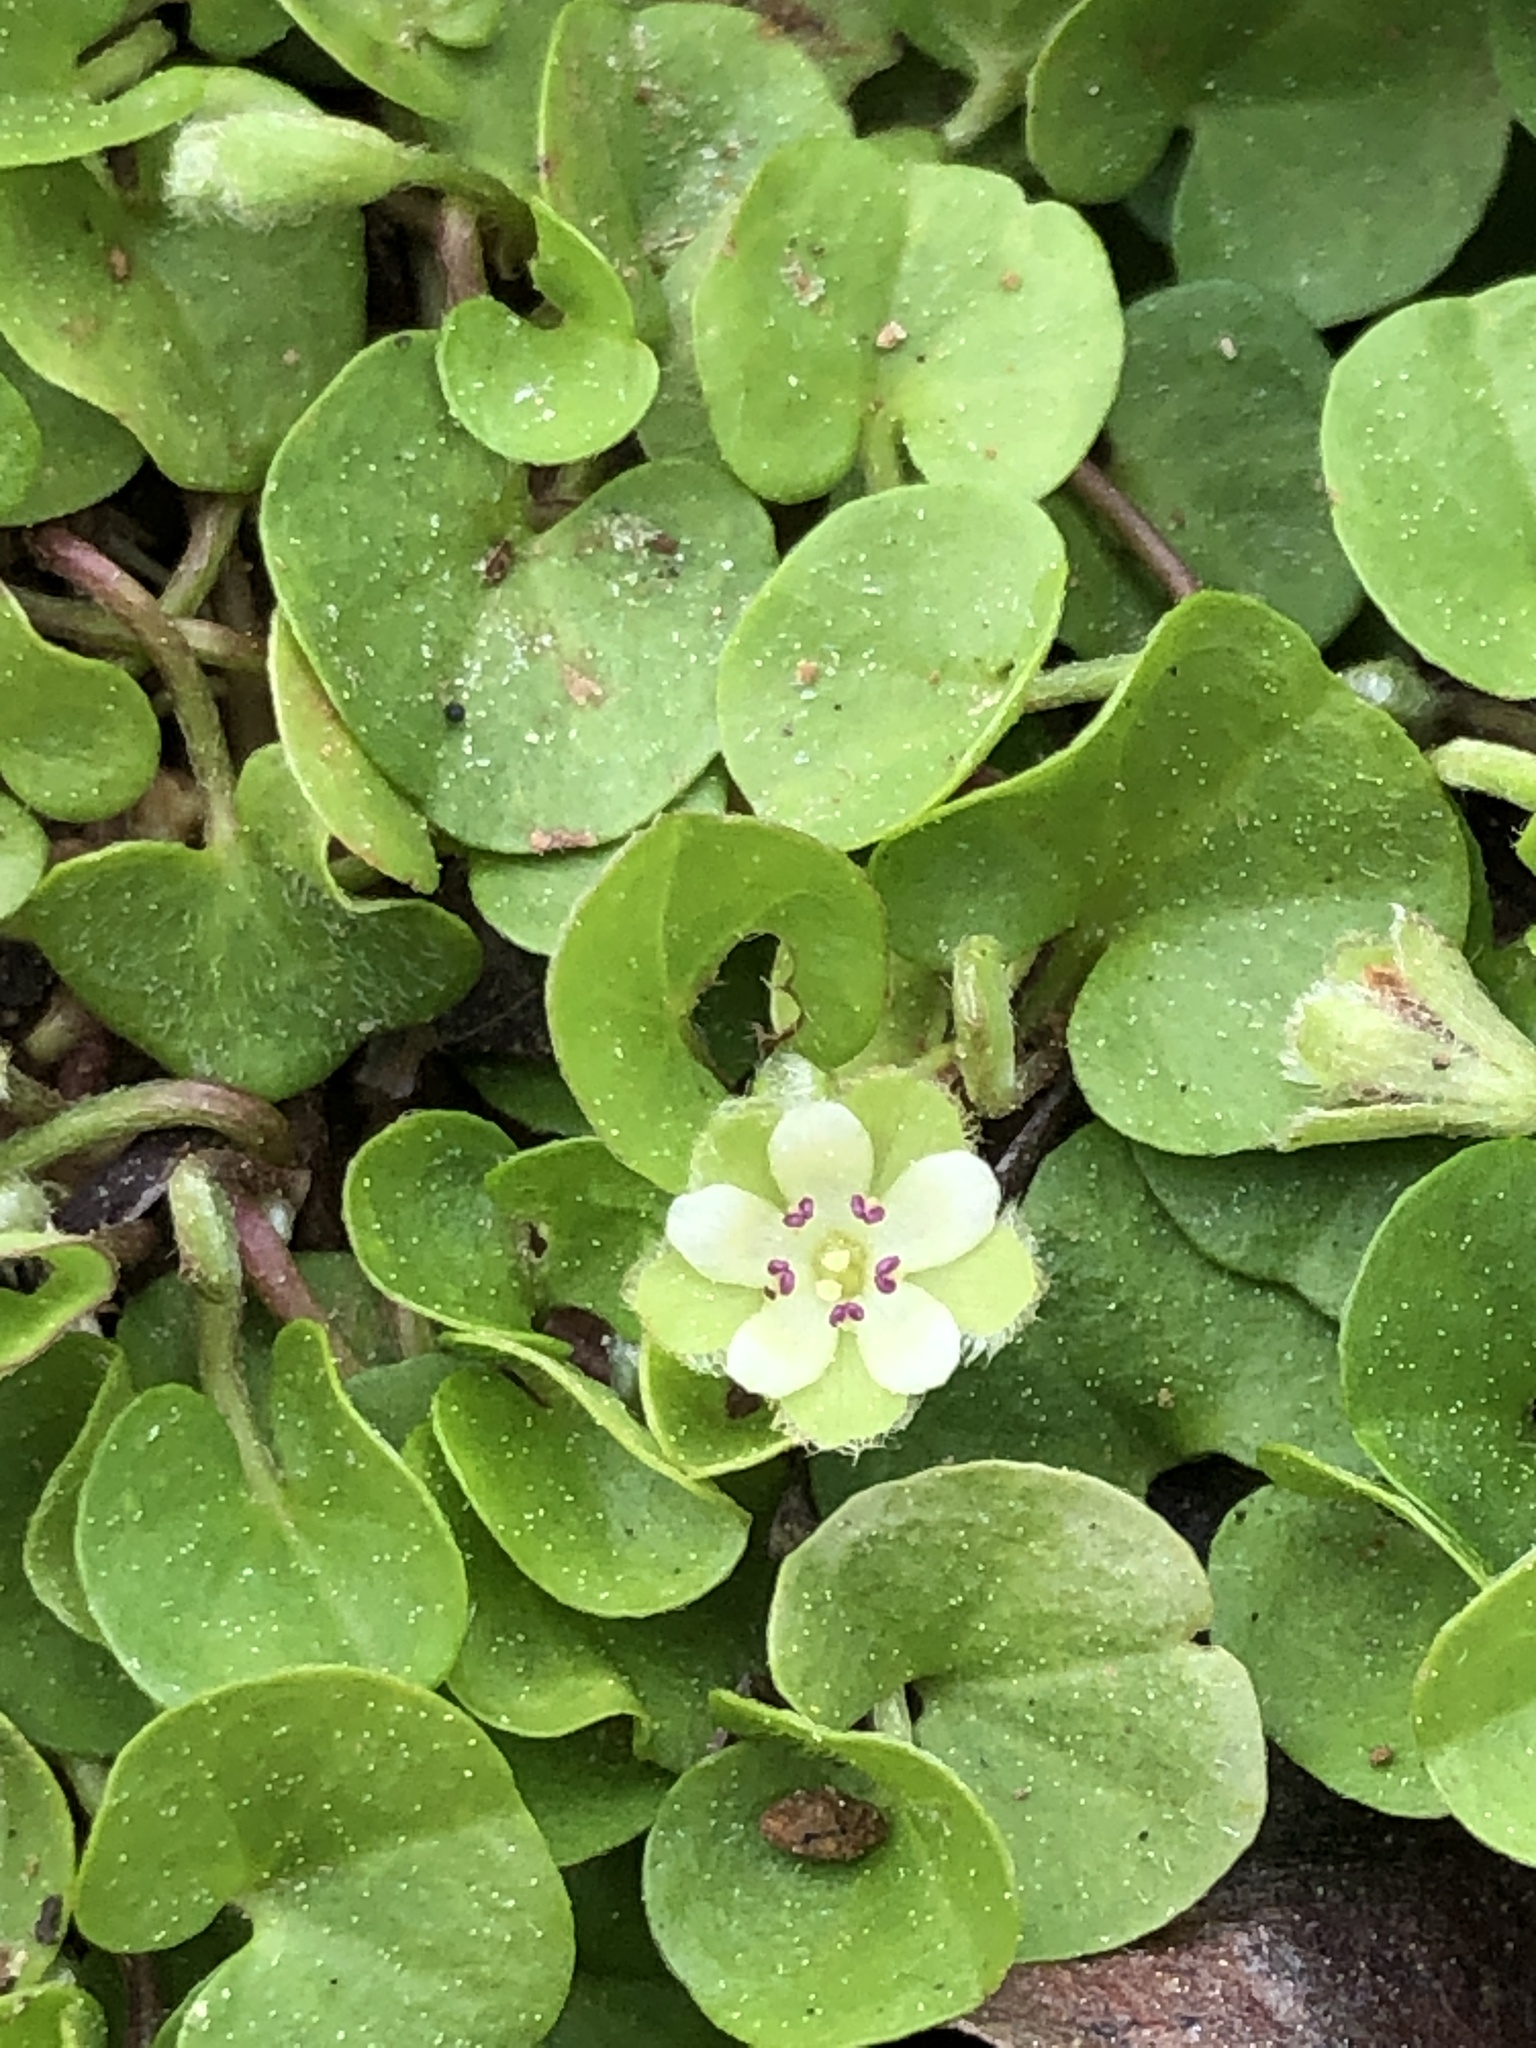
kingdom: Plantae
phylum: Tracheophyta
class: Magnoliopsida
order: Solanales
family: Convolvulaceae
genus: Dichondra
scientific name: Dichondra carolinensis
